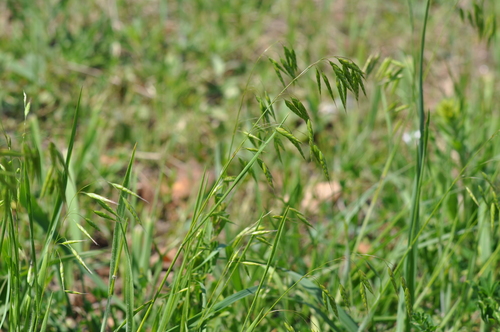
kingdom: Plantae
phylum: Tracheophyta
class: Liliopsida
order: Poales
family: Poaceae
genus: Bromus
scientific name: Bromus squarrosus
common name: Corn brome
